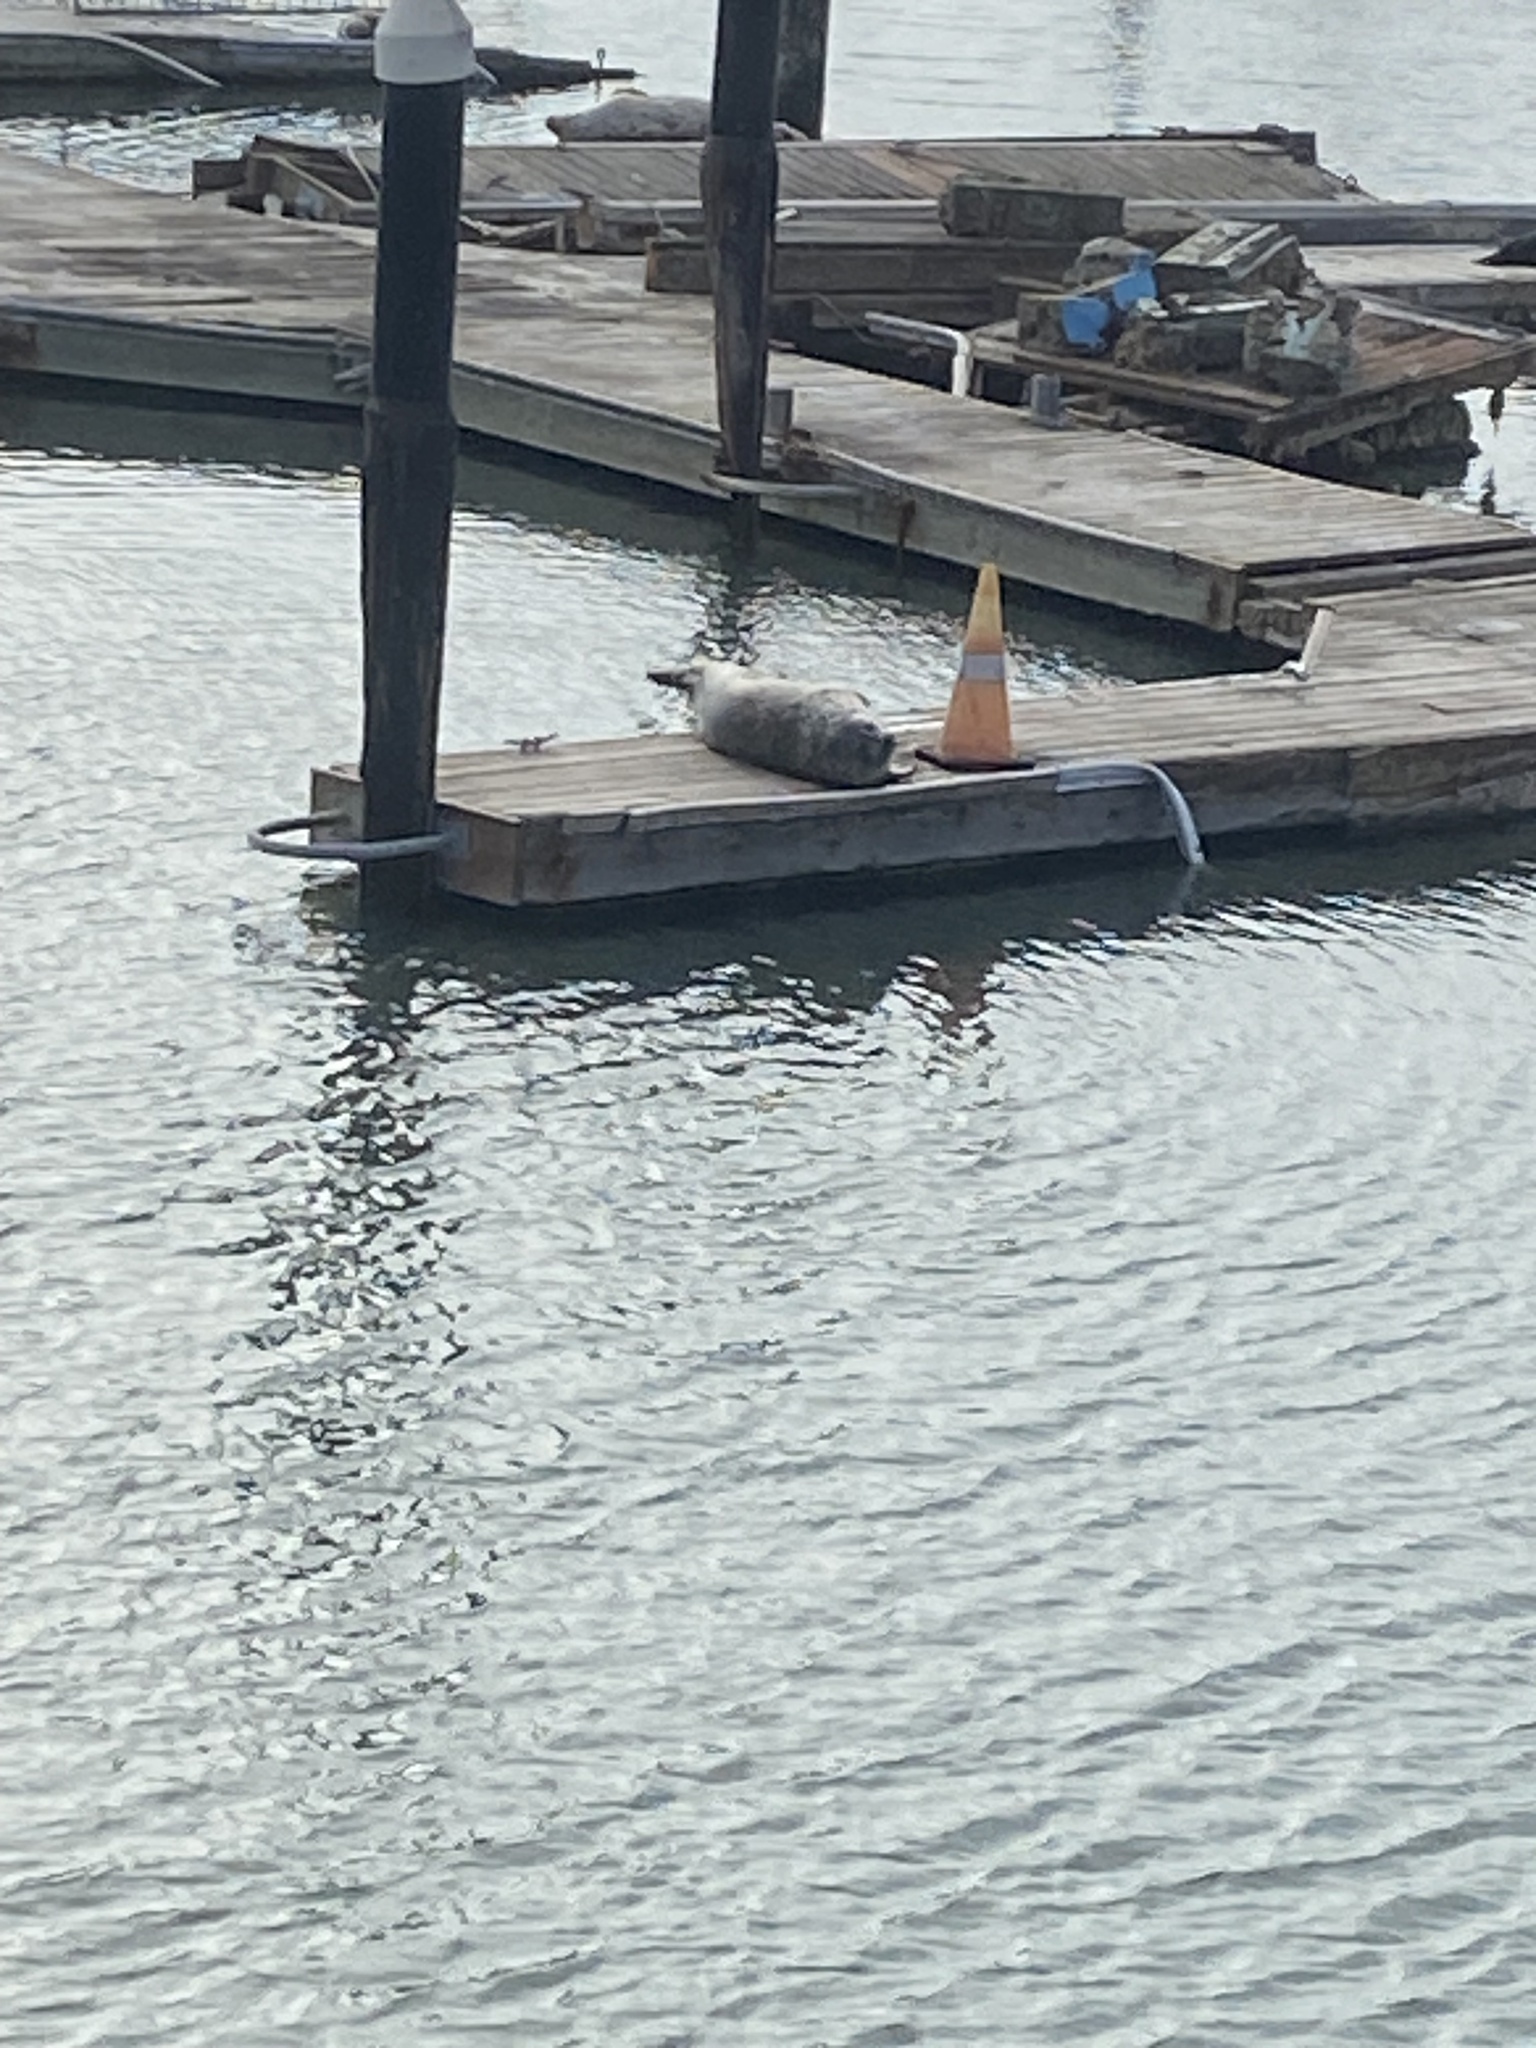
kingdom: Animalia
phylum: Chordata
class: Mammalia
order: Carnivora
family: Phocidae
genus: Phoca
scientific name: Phoca vitulina
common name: Harbor seal
